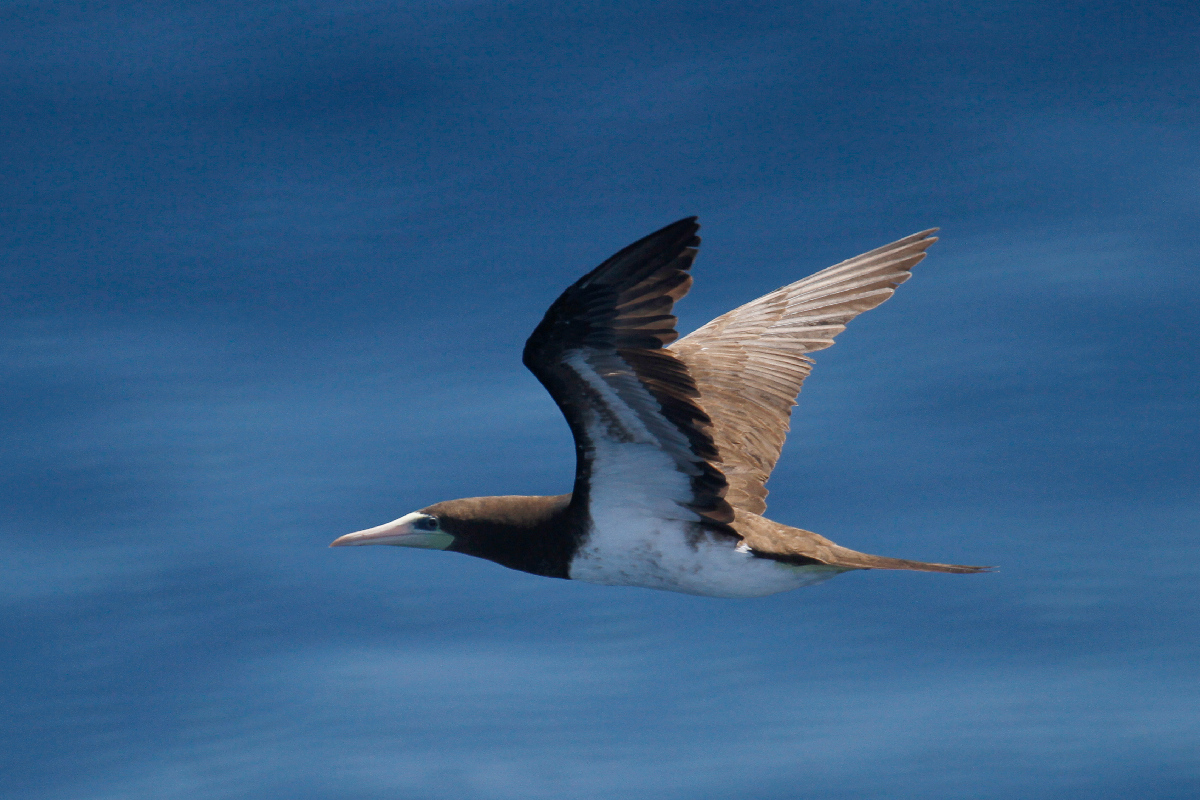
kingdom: Animalia
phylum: Chordata
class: Aves
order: Suliformes
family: Sulidae
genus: Sula
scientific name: Sula leucogaster
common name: Brown booby
